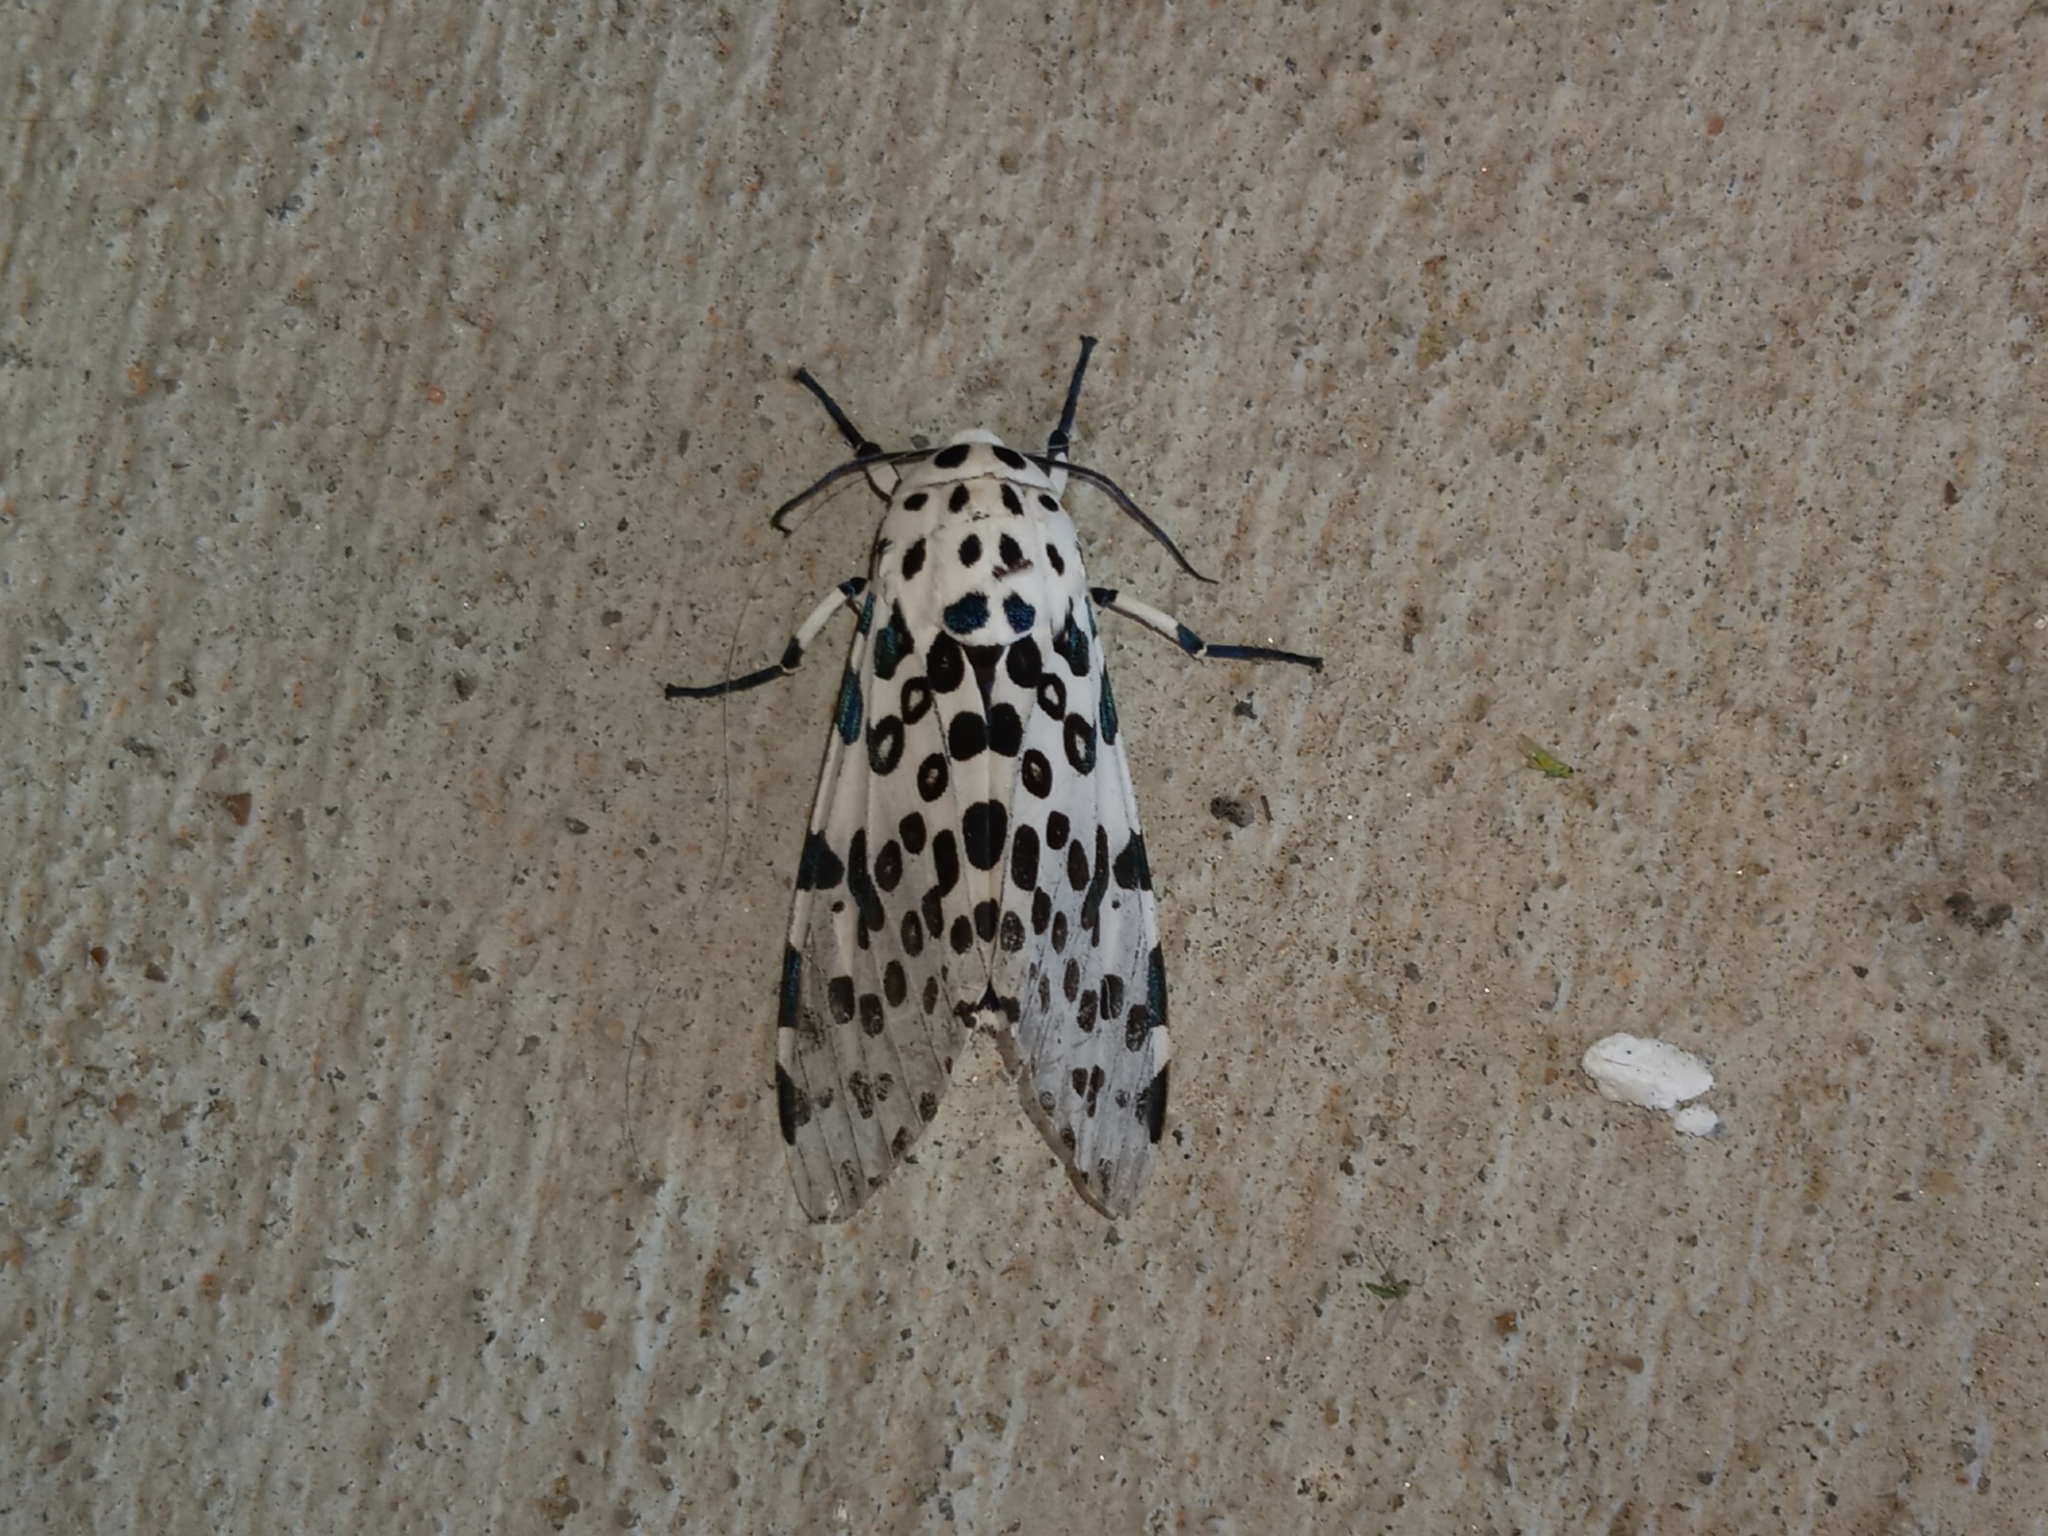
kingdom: Animalia
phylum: Arthropoda
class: Insecta
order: Lepidoptera
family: Erebidae
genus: Hypercompe
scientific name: Hypercompe scribonia
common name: Giant leopard moth
